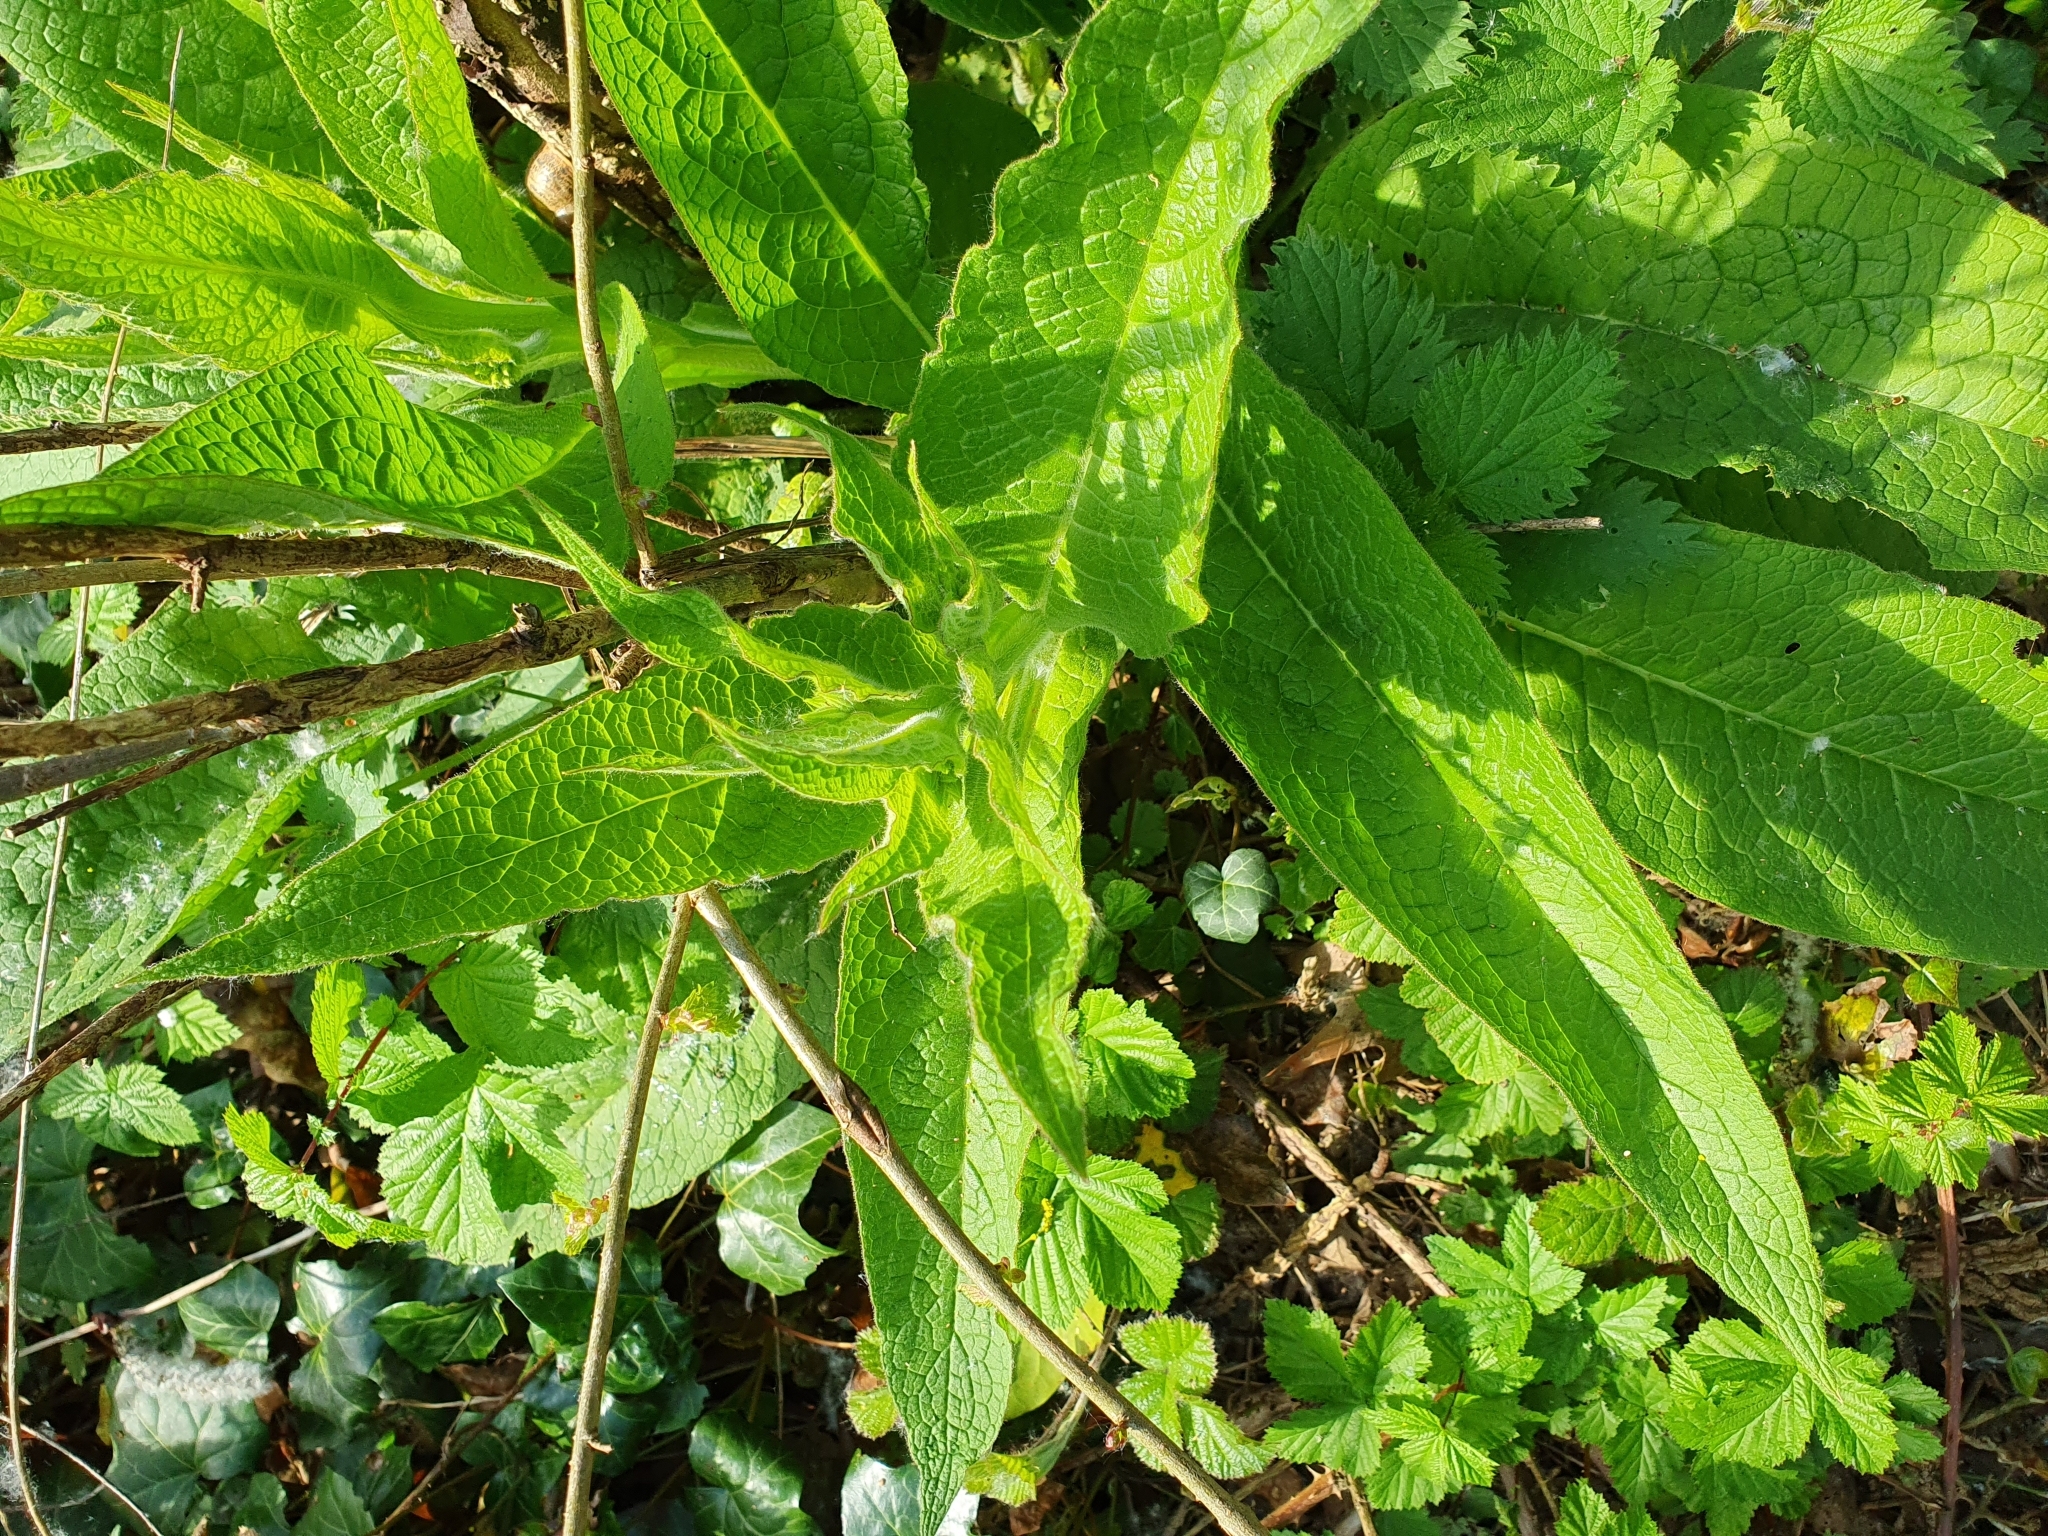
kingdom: Plantae
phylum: Tracheophyta
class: Magnoliopsida
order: Boraginales
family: Boraginaceae
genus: Symphytum
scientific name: Symphytum officinale
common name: Common comfrey
